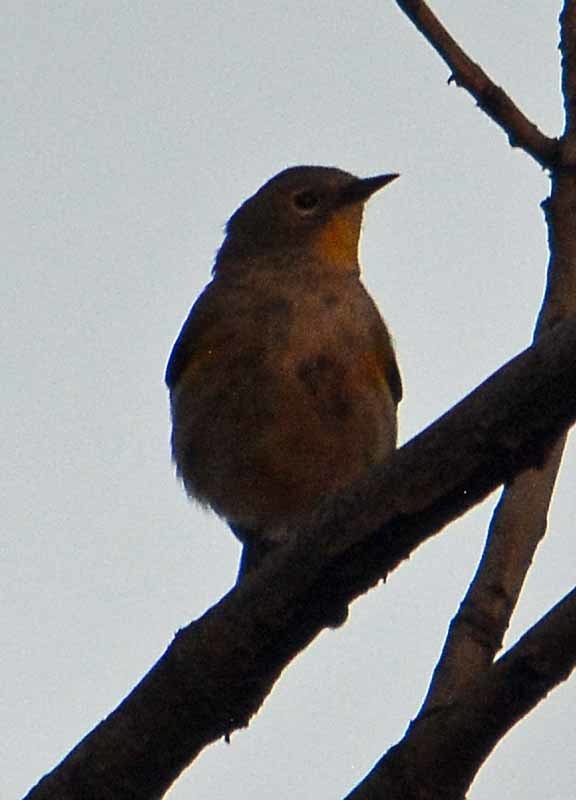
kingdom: Animalia
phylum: Chordata
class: Aves
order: Passeriformes
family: Parulidae
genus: Setophaga
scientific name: Setophaga coronata
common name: Myrtle warbler
